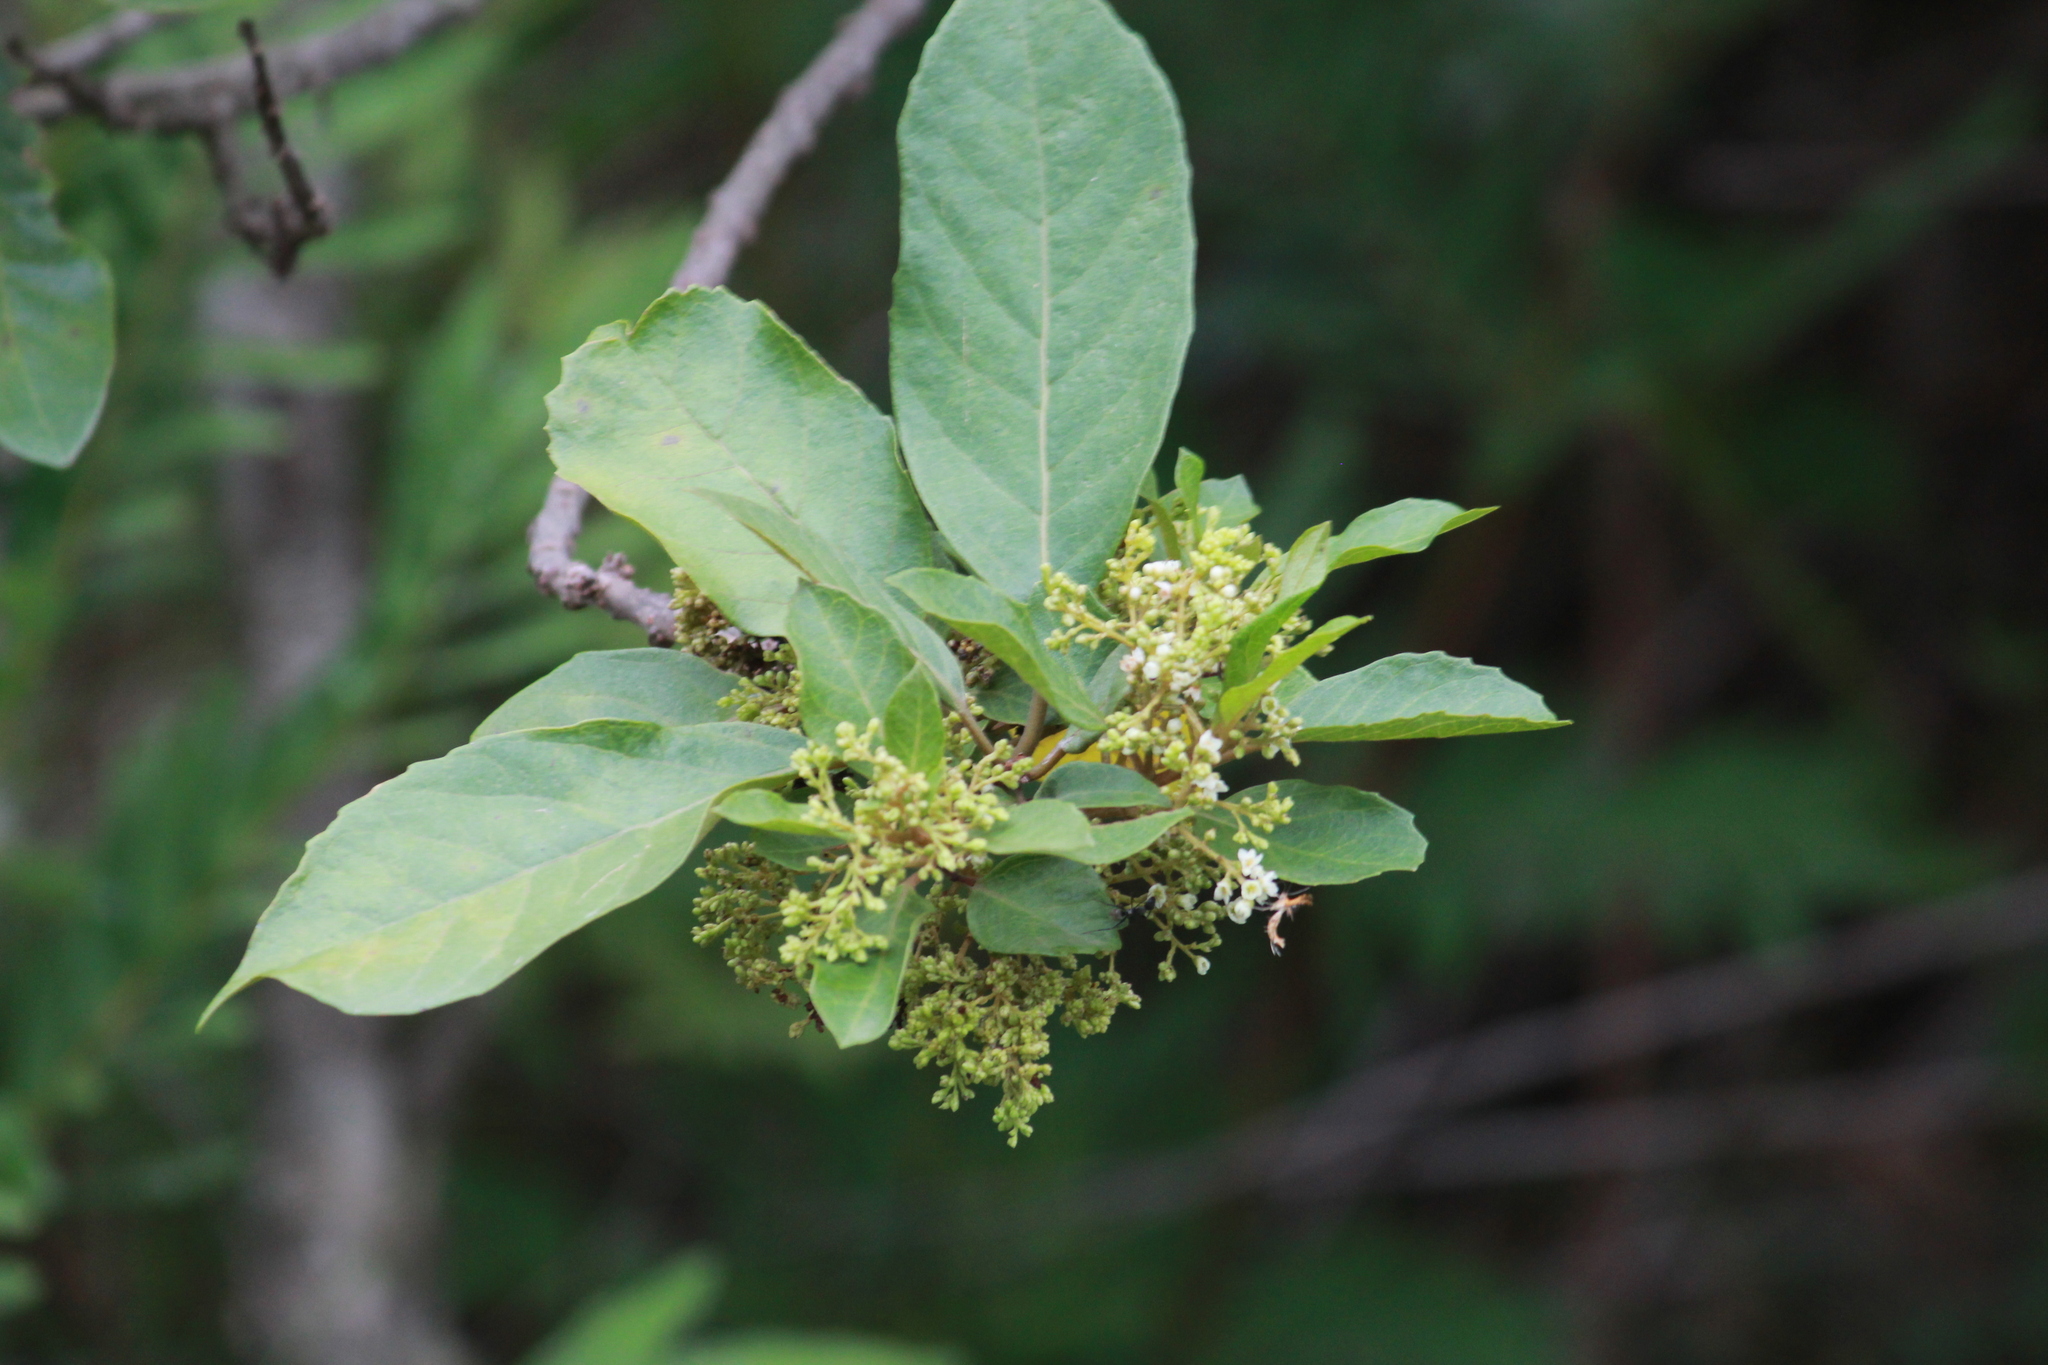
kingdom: Plantae
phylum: Tracheophyta
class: Magnoliopsida
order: Ericales
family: Primulaceae
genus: Maesa
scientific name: Maesa lanceolata
